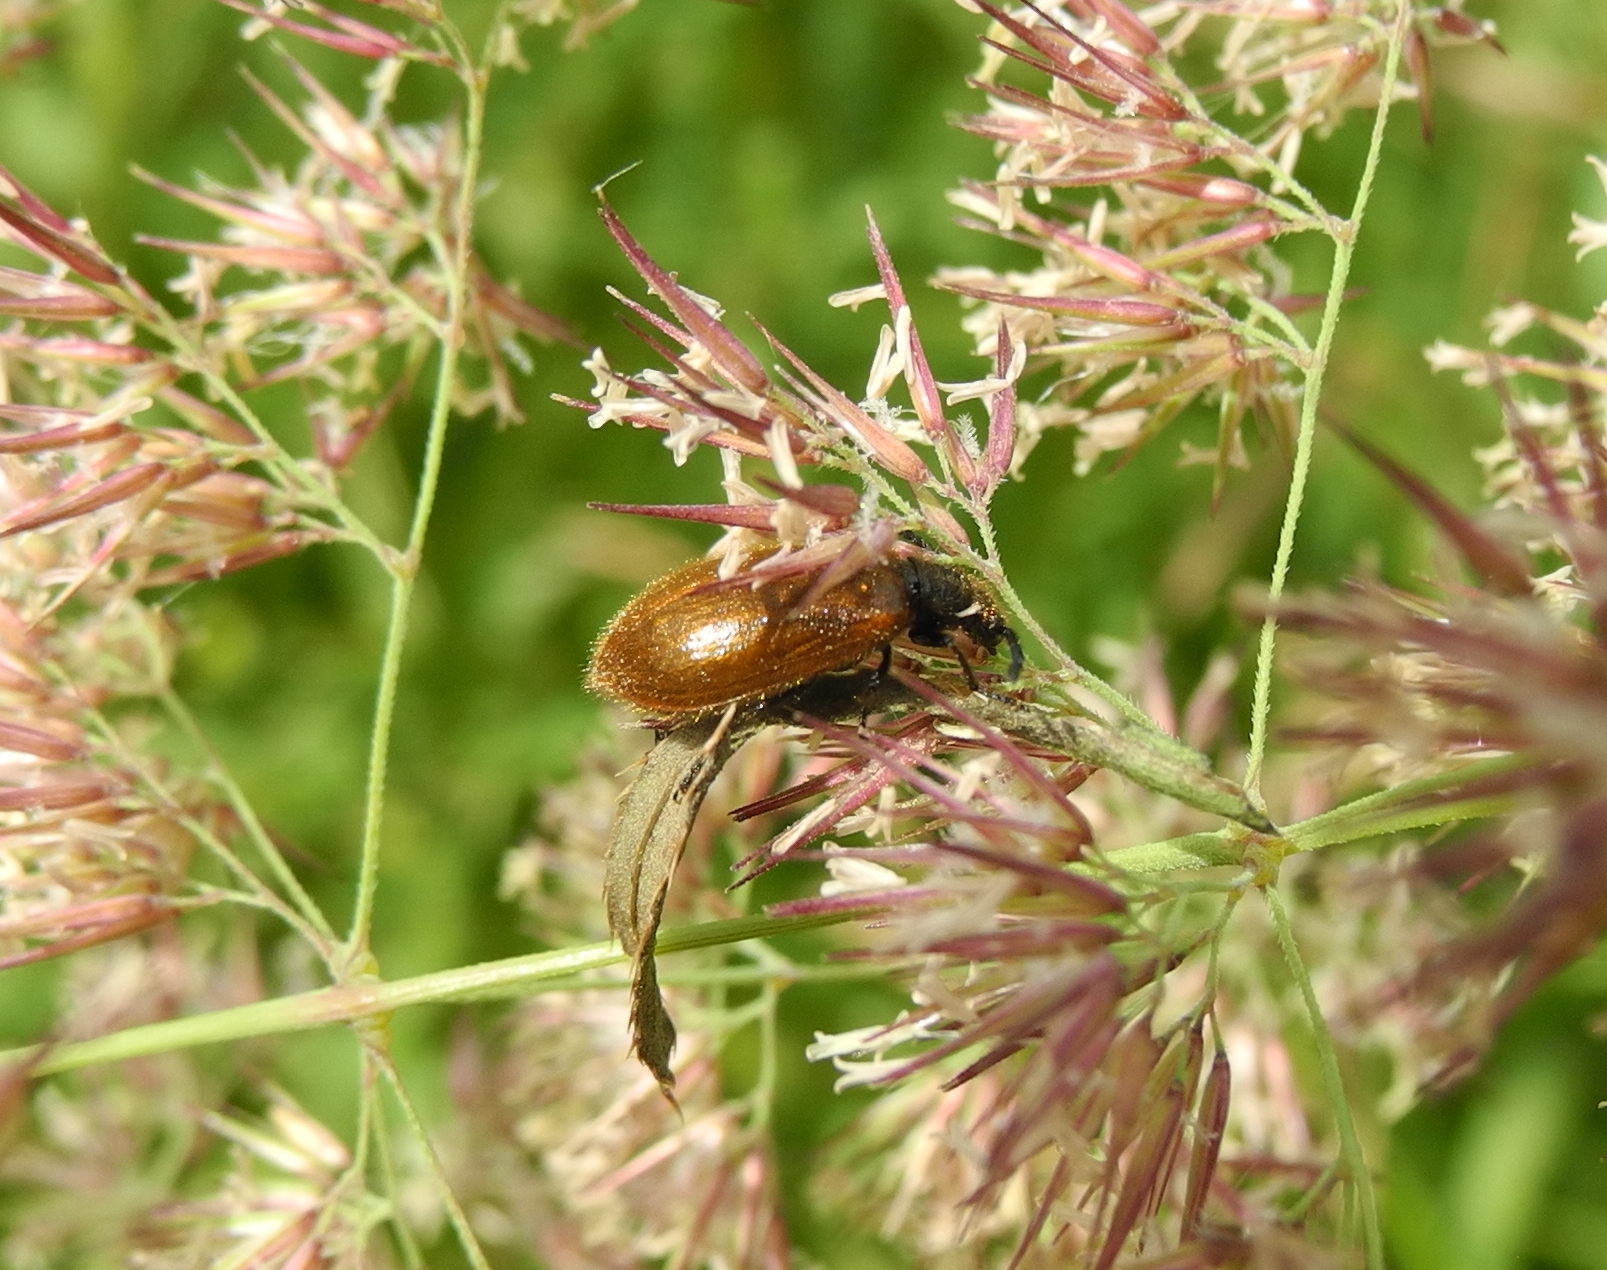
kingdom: Animalia
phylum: Arthropoda
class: Insecta
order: Coleoptera
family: Tenebrionidae
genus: Lagria
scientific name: Lagria hirta
